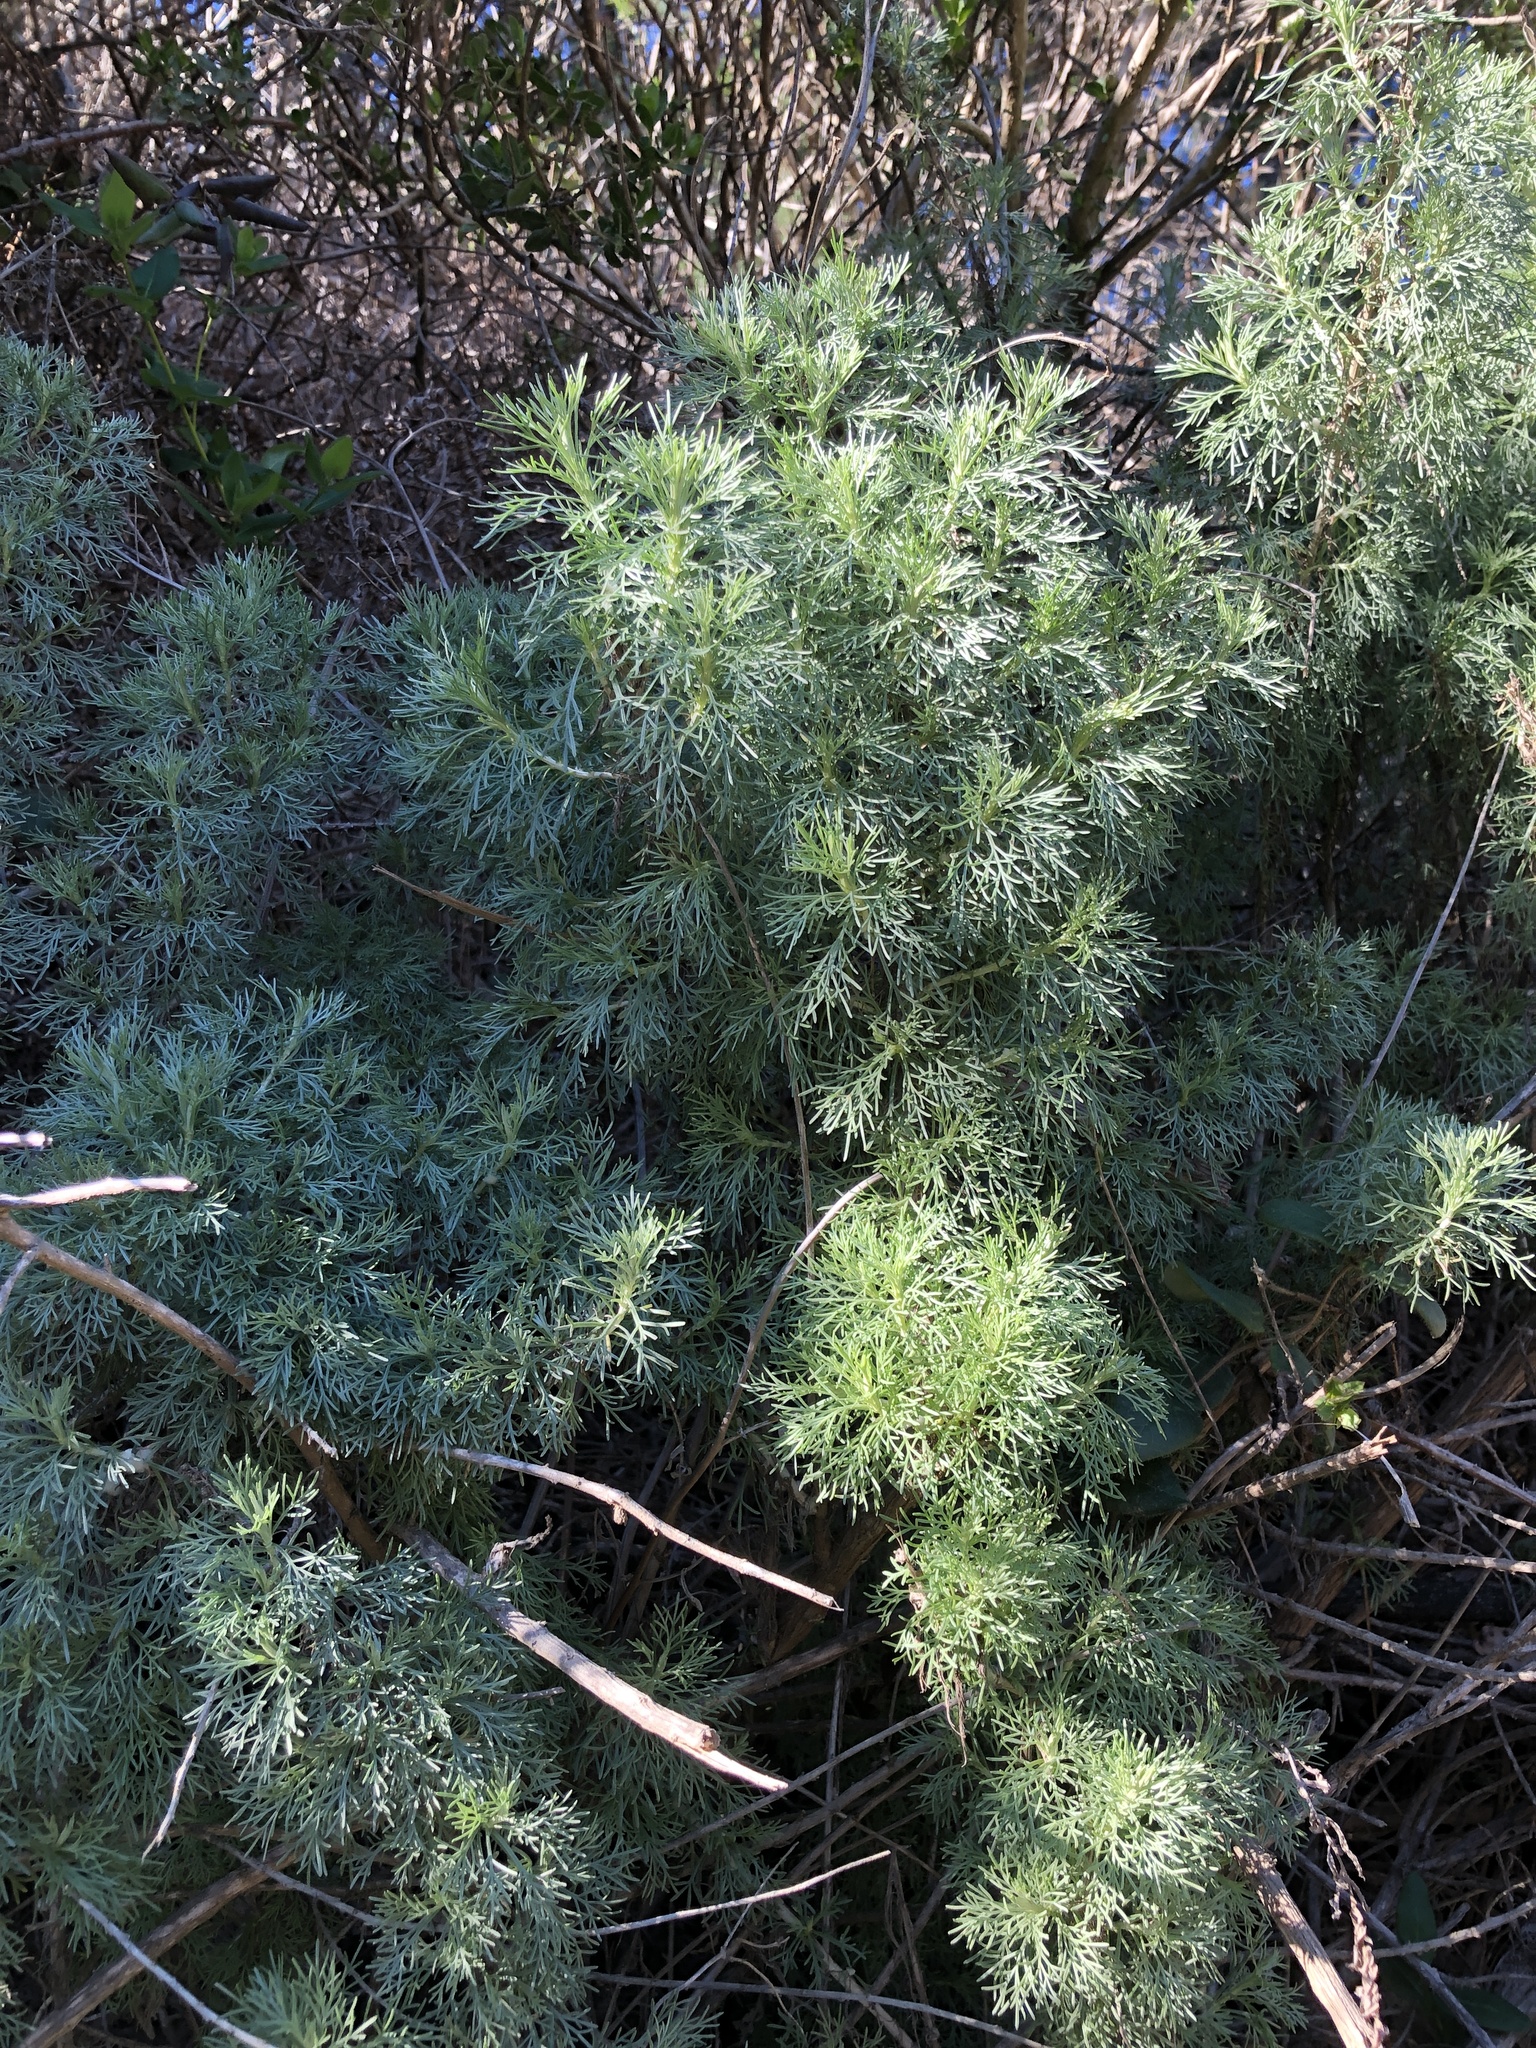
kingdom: Plantae
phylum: Tracheophyta
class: Magnoliopsida
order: Asterales
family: Asteraceae
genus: Artemisia
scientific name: Artemisia californica
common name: California sagebrush
